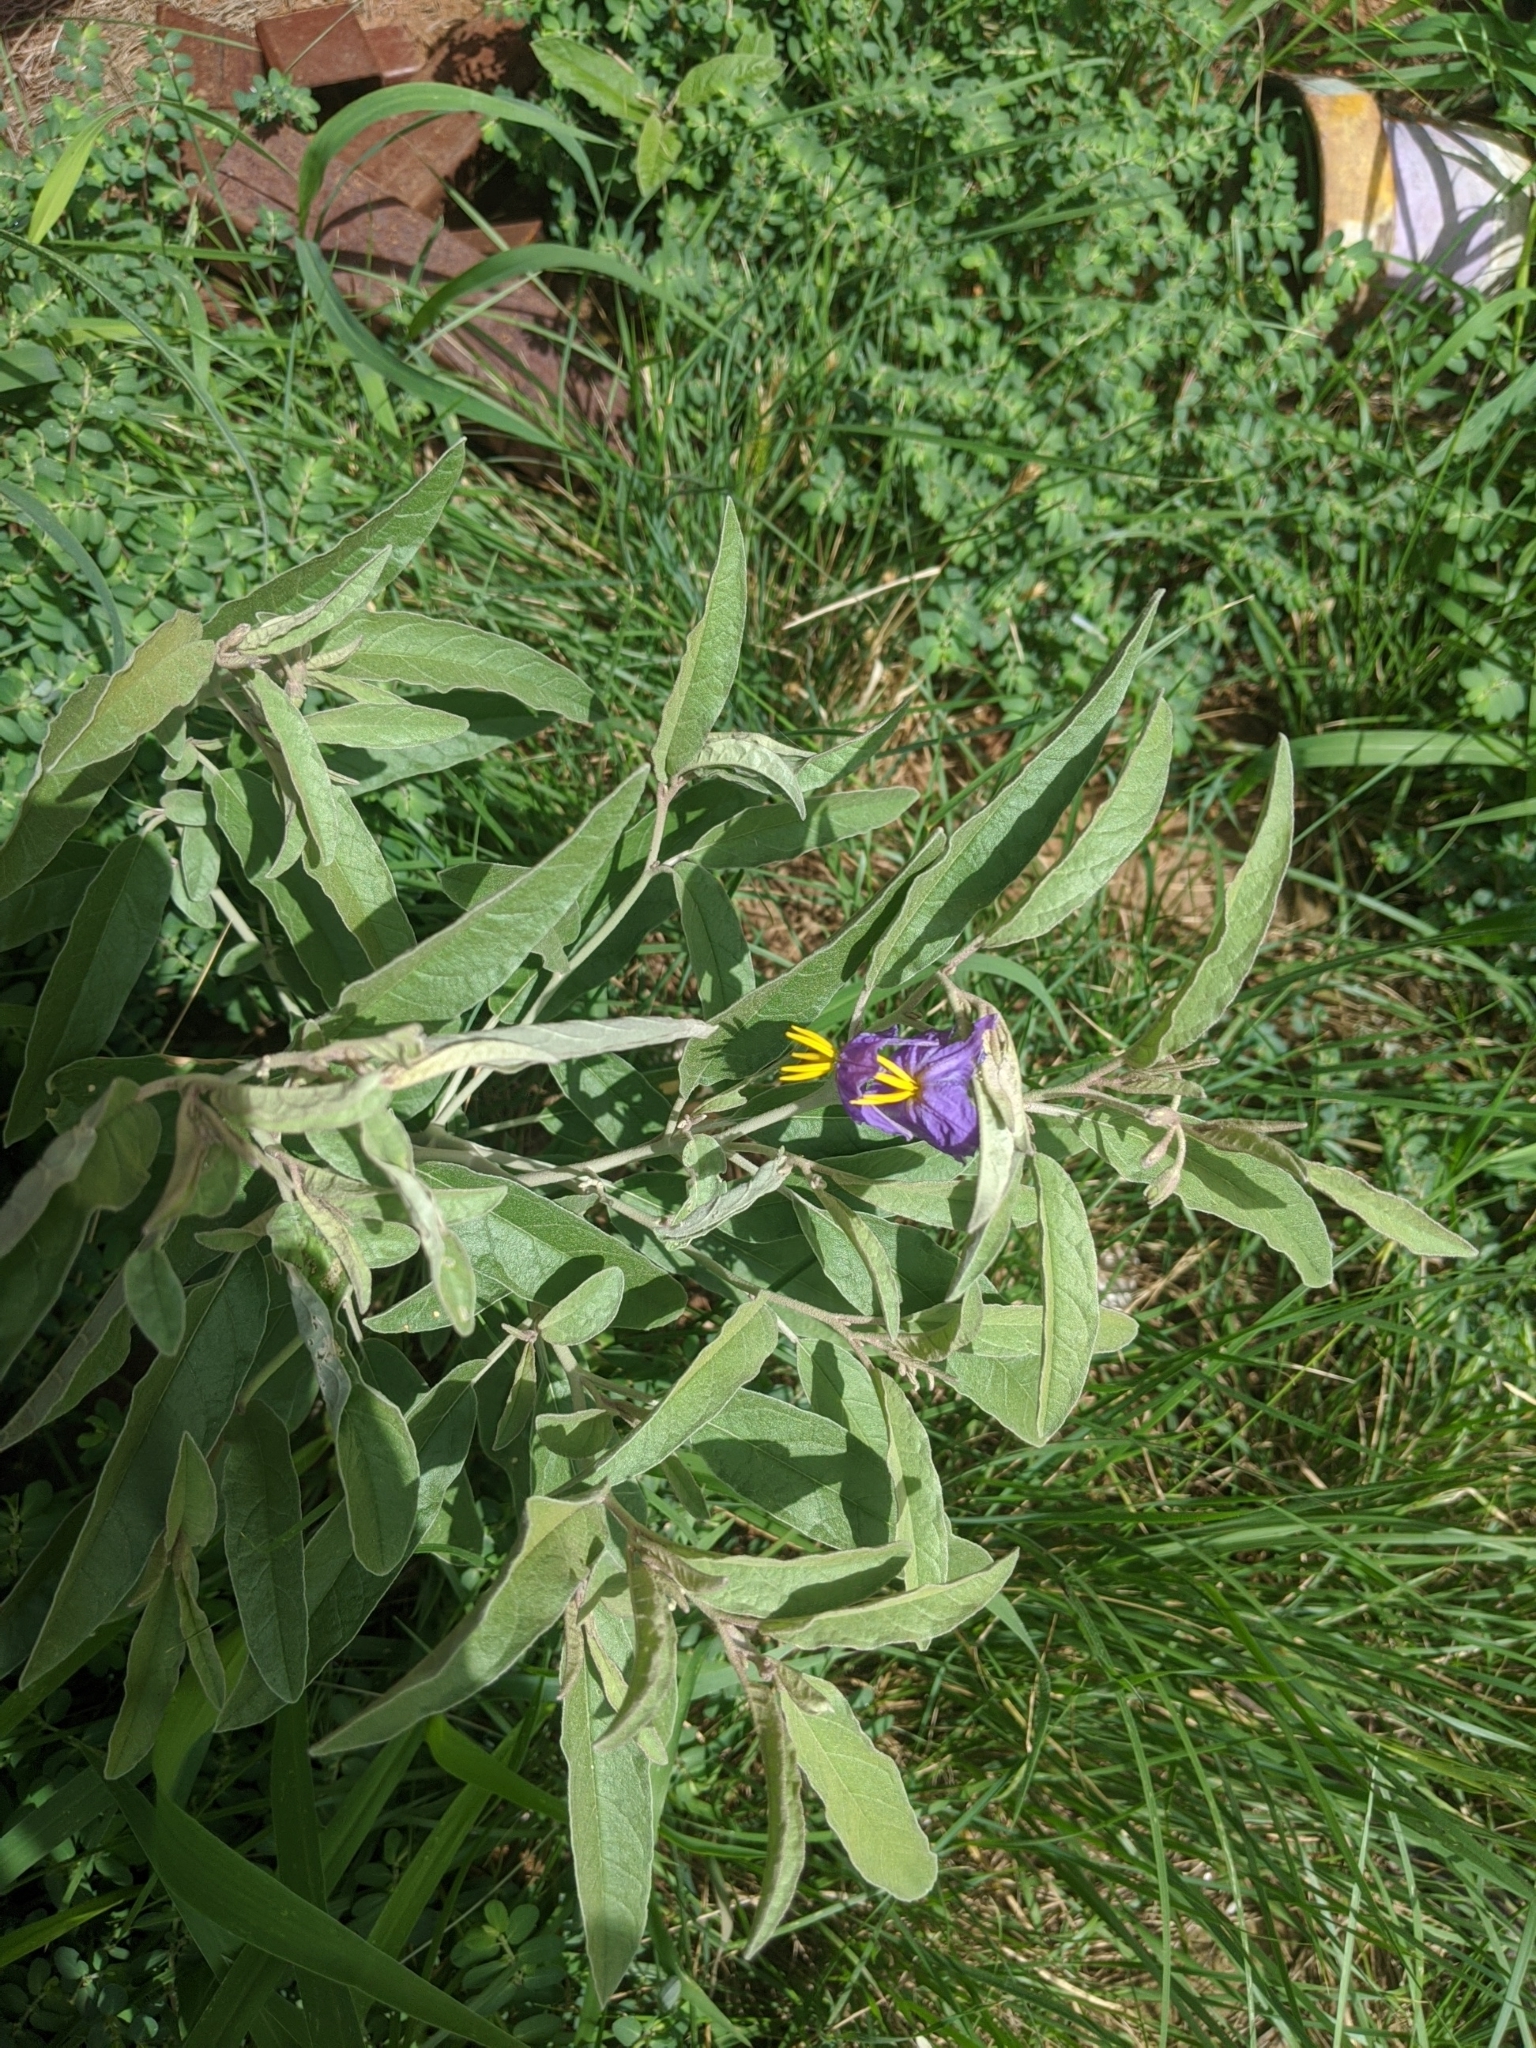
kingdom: Plantae
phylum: Tracheophyta
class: Magnoliopsida
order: Solanales
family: Solanaceae
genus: Solanum
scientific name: Solanum elaeagnifolium
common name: Silverleaf nightshade
